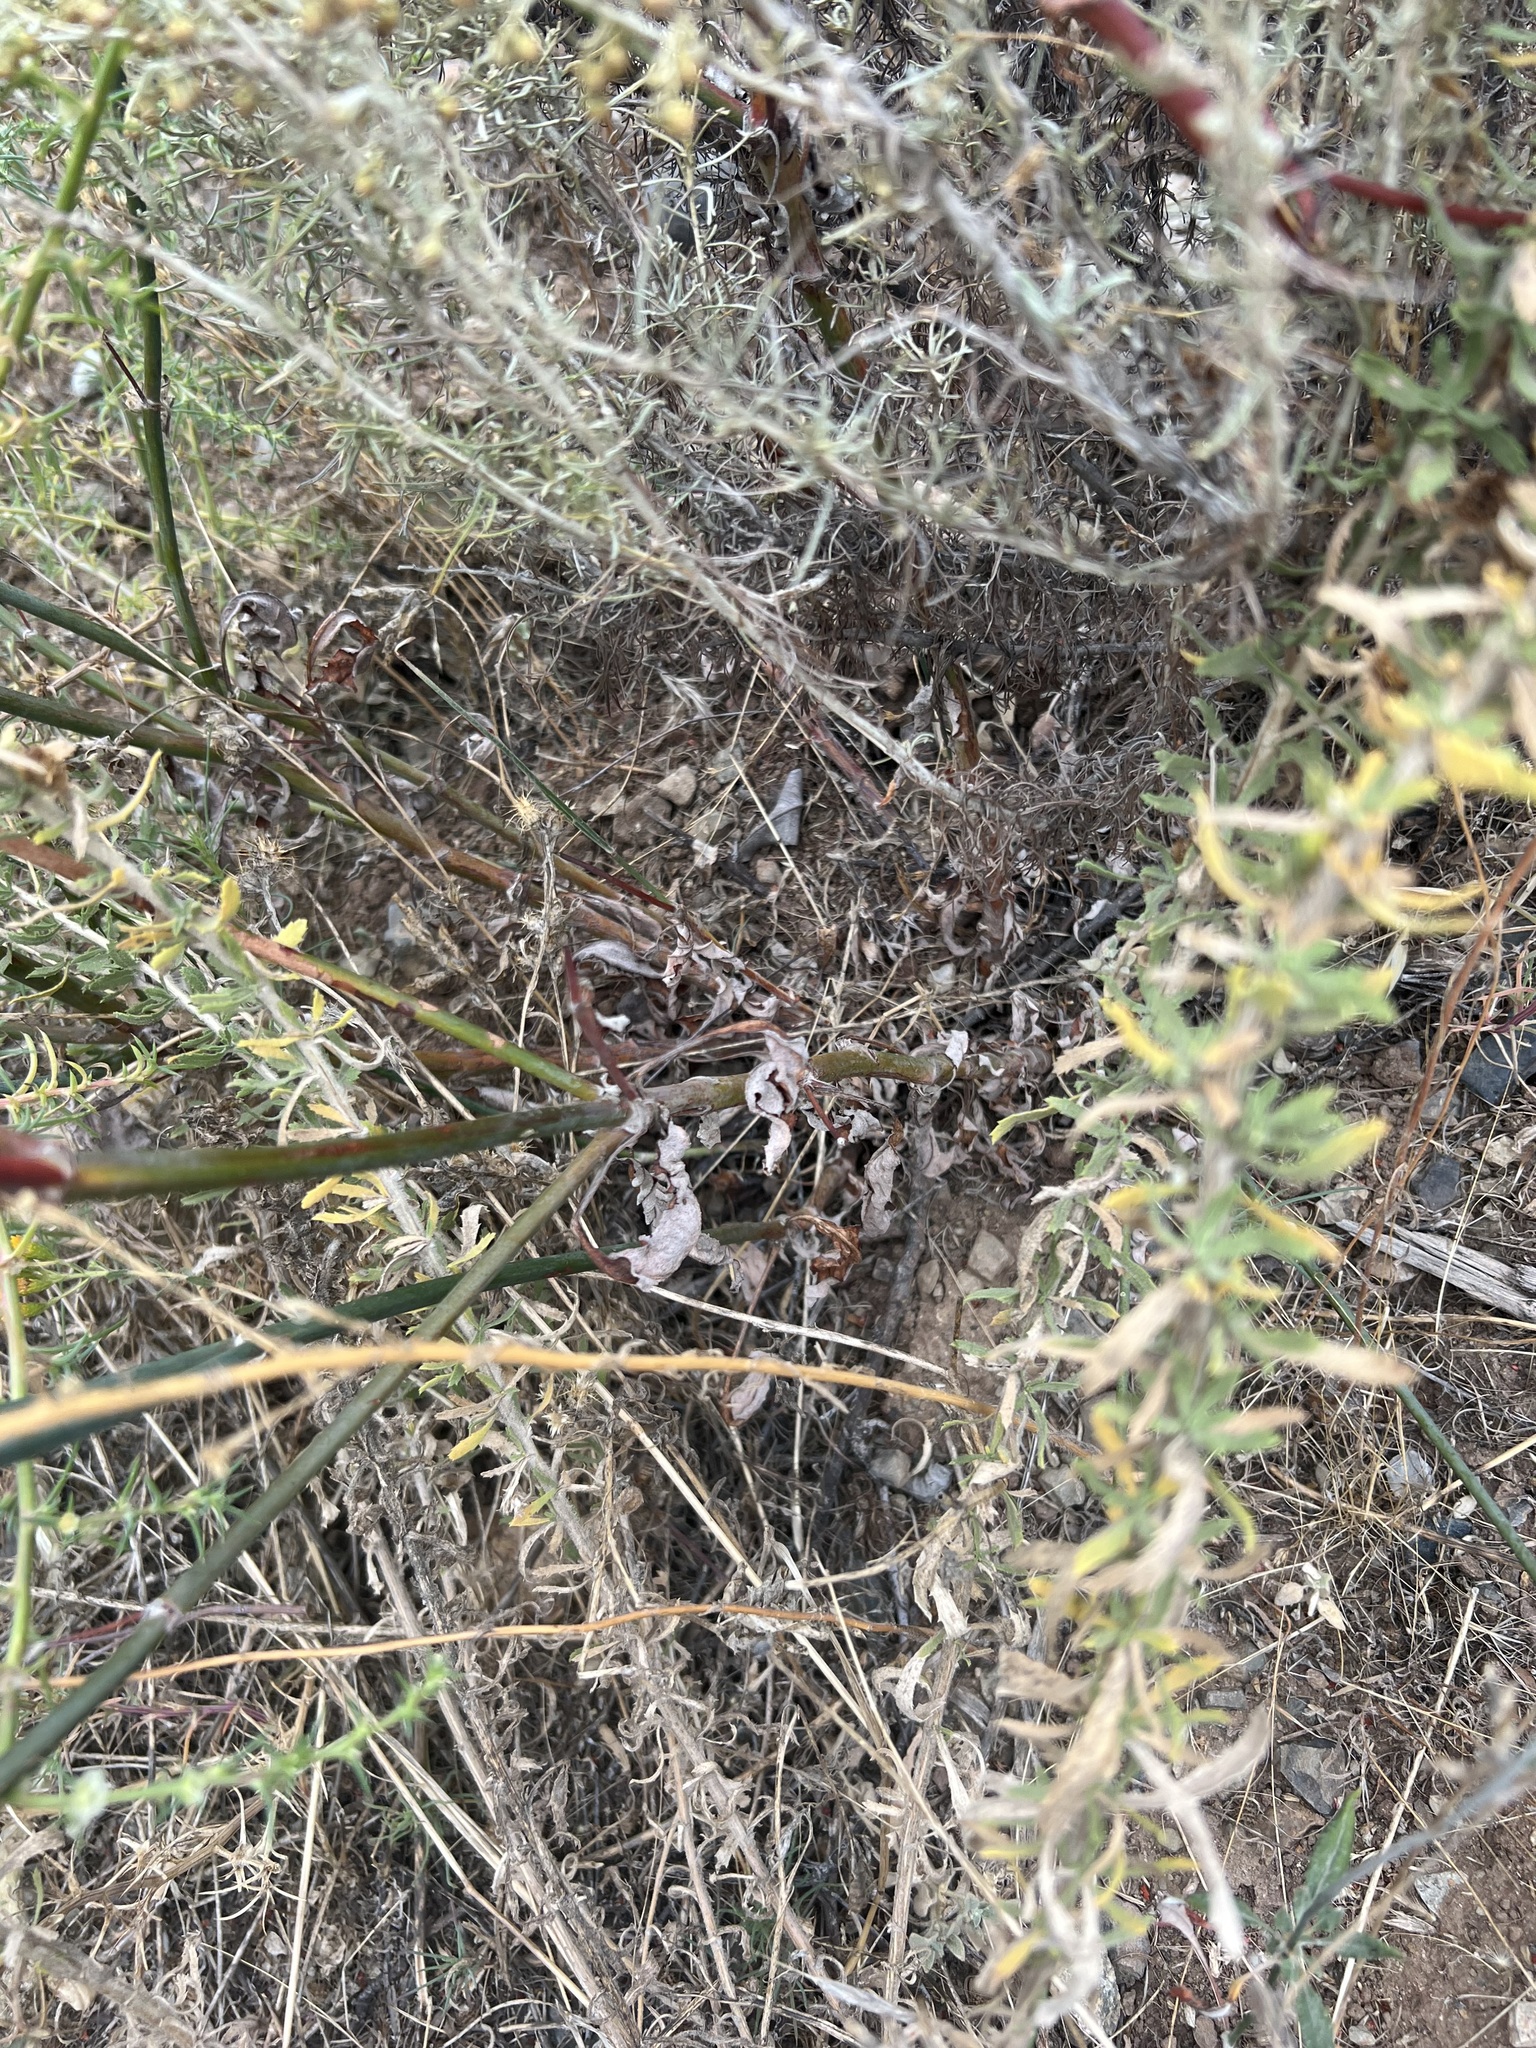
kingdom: Plantae
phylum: Tracheophyta
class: Magnoliopsida
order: Caryophyllales
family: Polygonaceae
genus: Eriogonum
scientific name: Eriogonum elongatum
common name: Long-stem wild buckwheat
